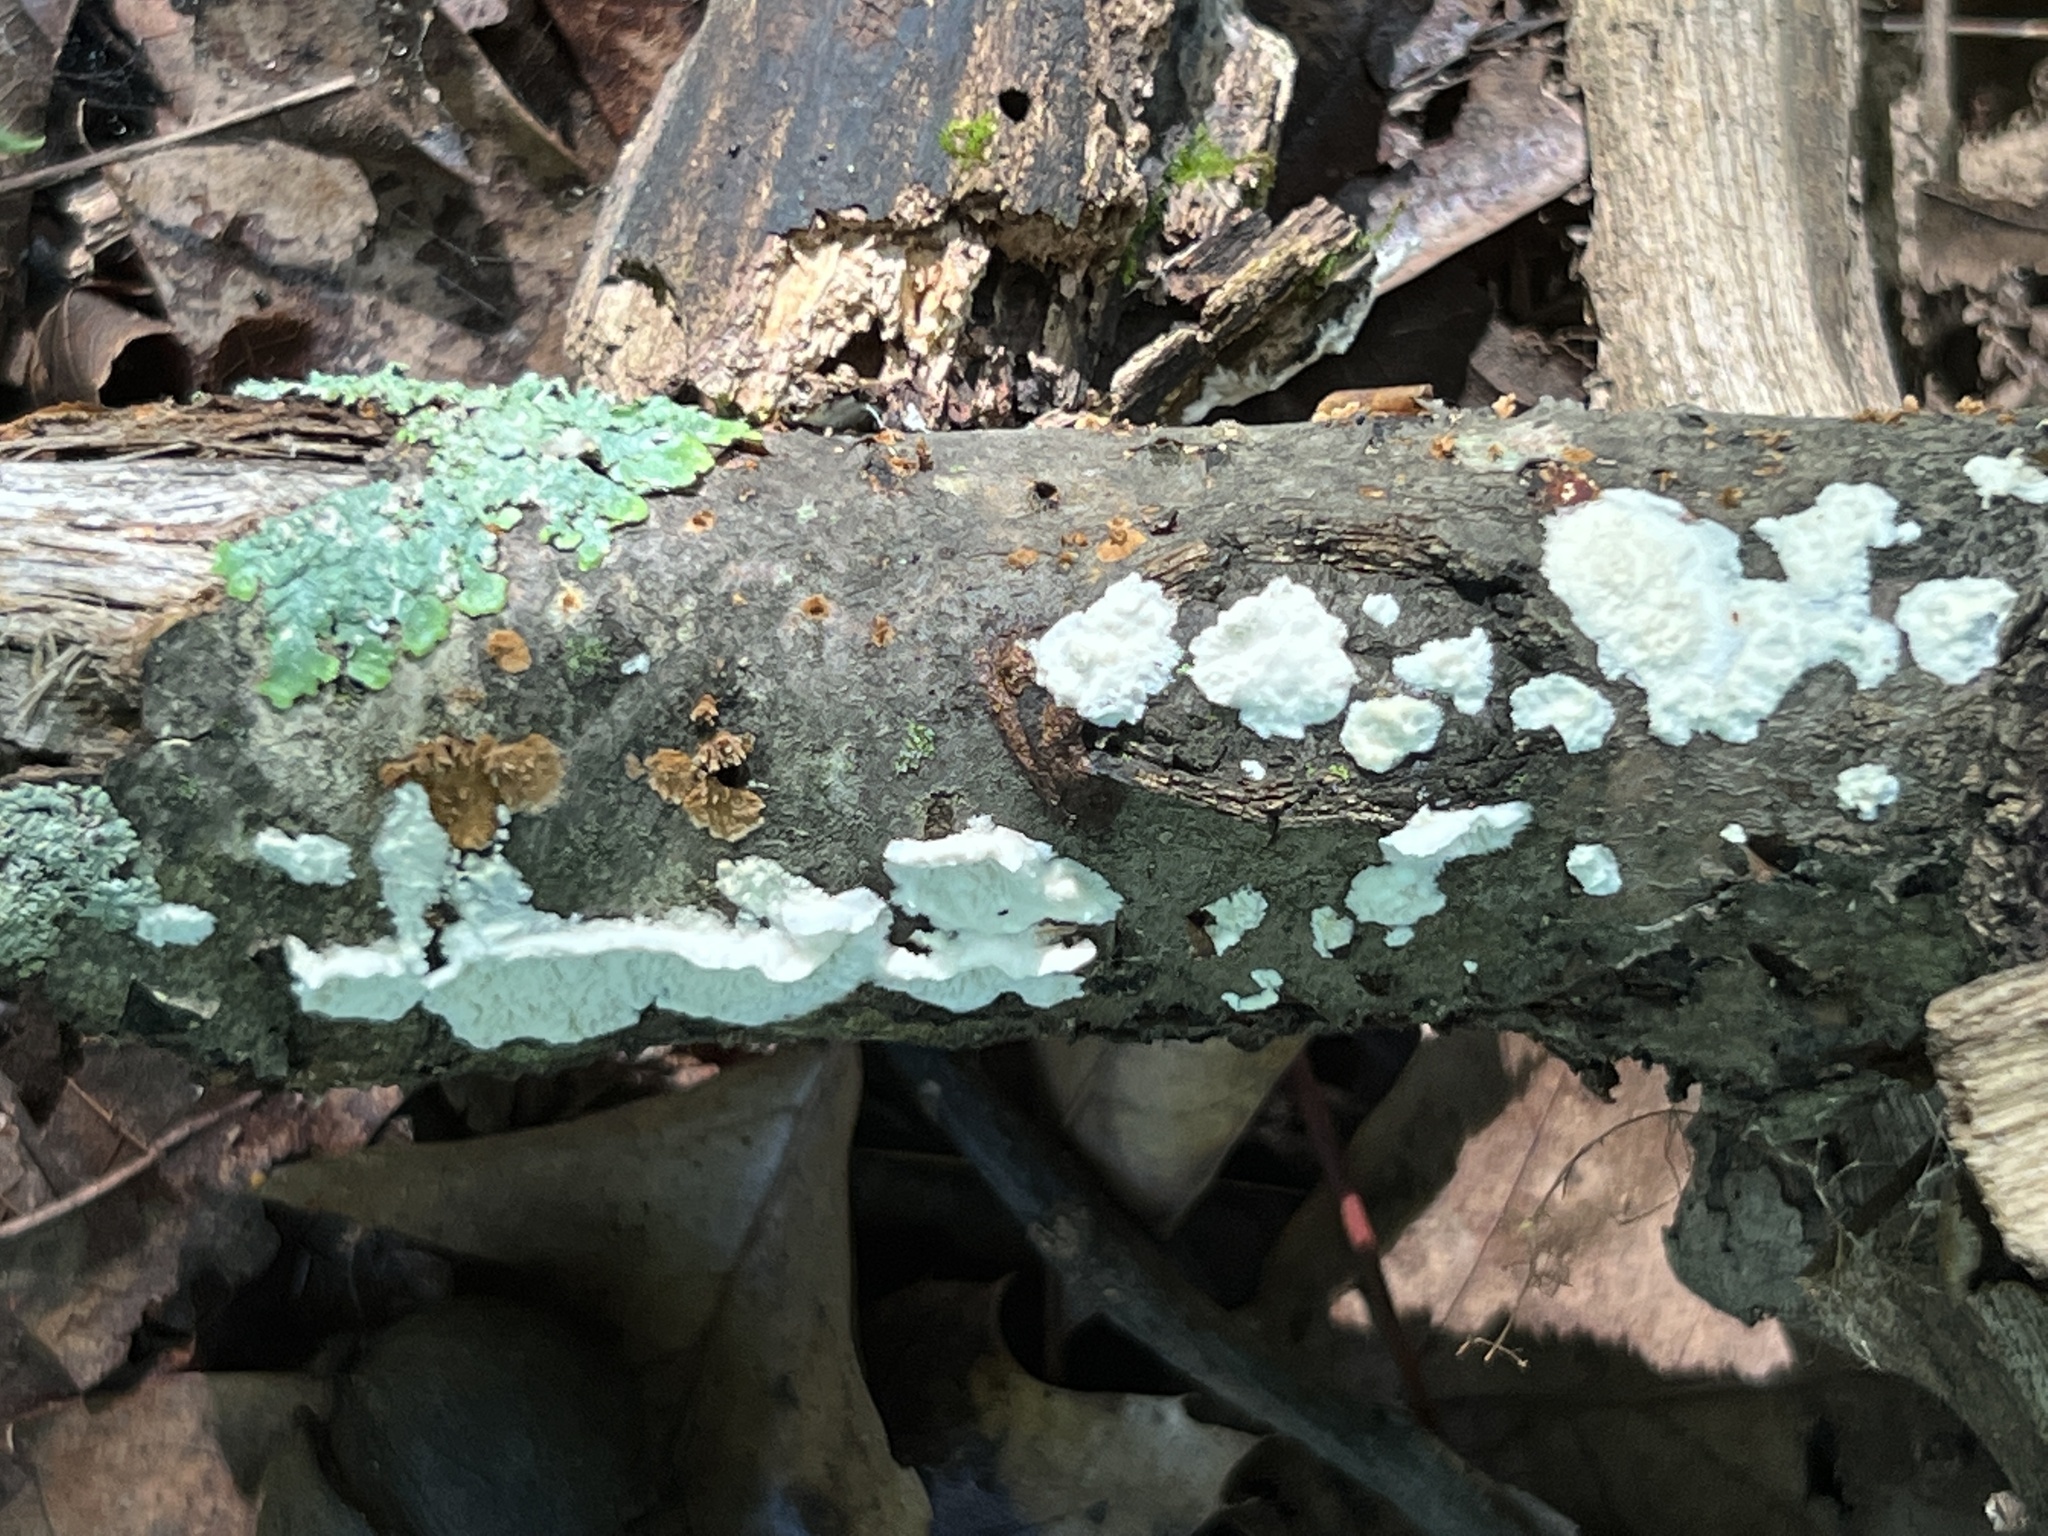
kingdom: Fungi
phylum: Basidiomycota
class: Agaricomycetes
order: Polyporales
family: Irpicaceae
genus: Irpex
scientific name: Irpex lacteus
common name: Milk-white toothed polypore
